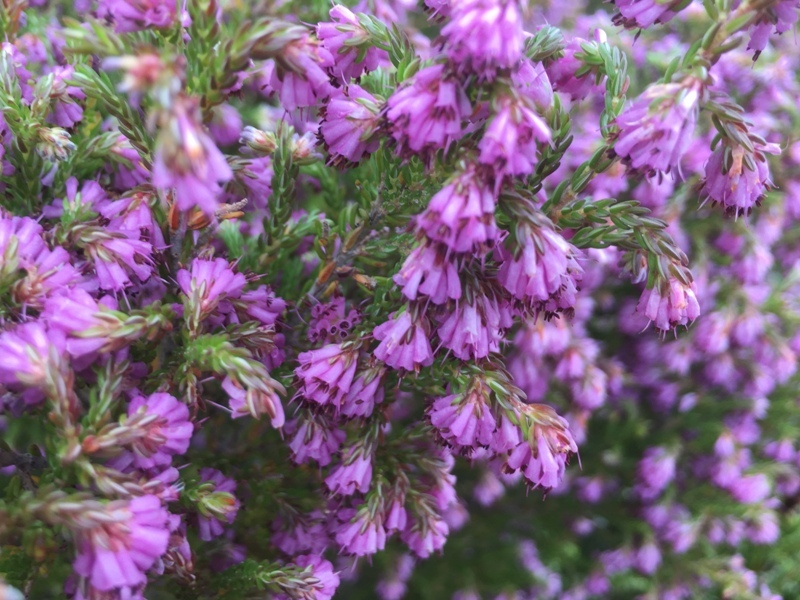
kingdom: Plantae
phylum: Tracheophyta
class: Magnoliopsida
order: Ericales
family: Ericaceae
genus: Erica
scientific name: Erica labialis
